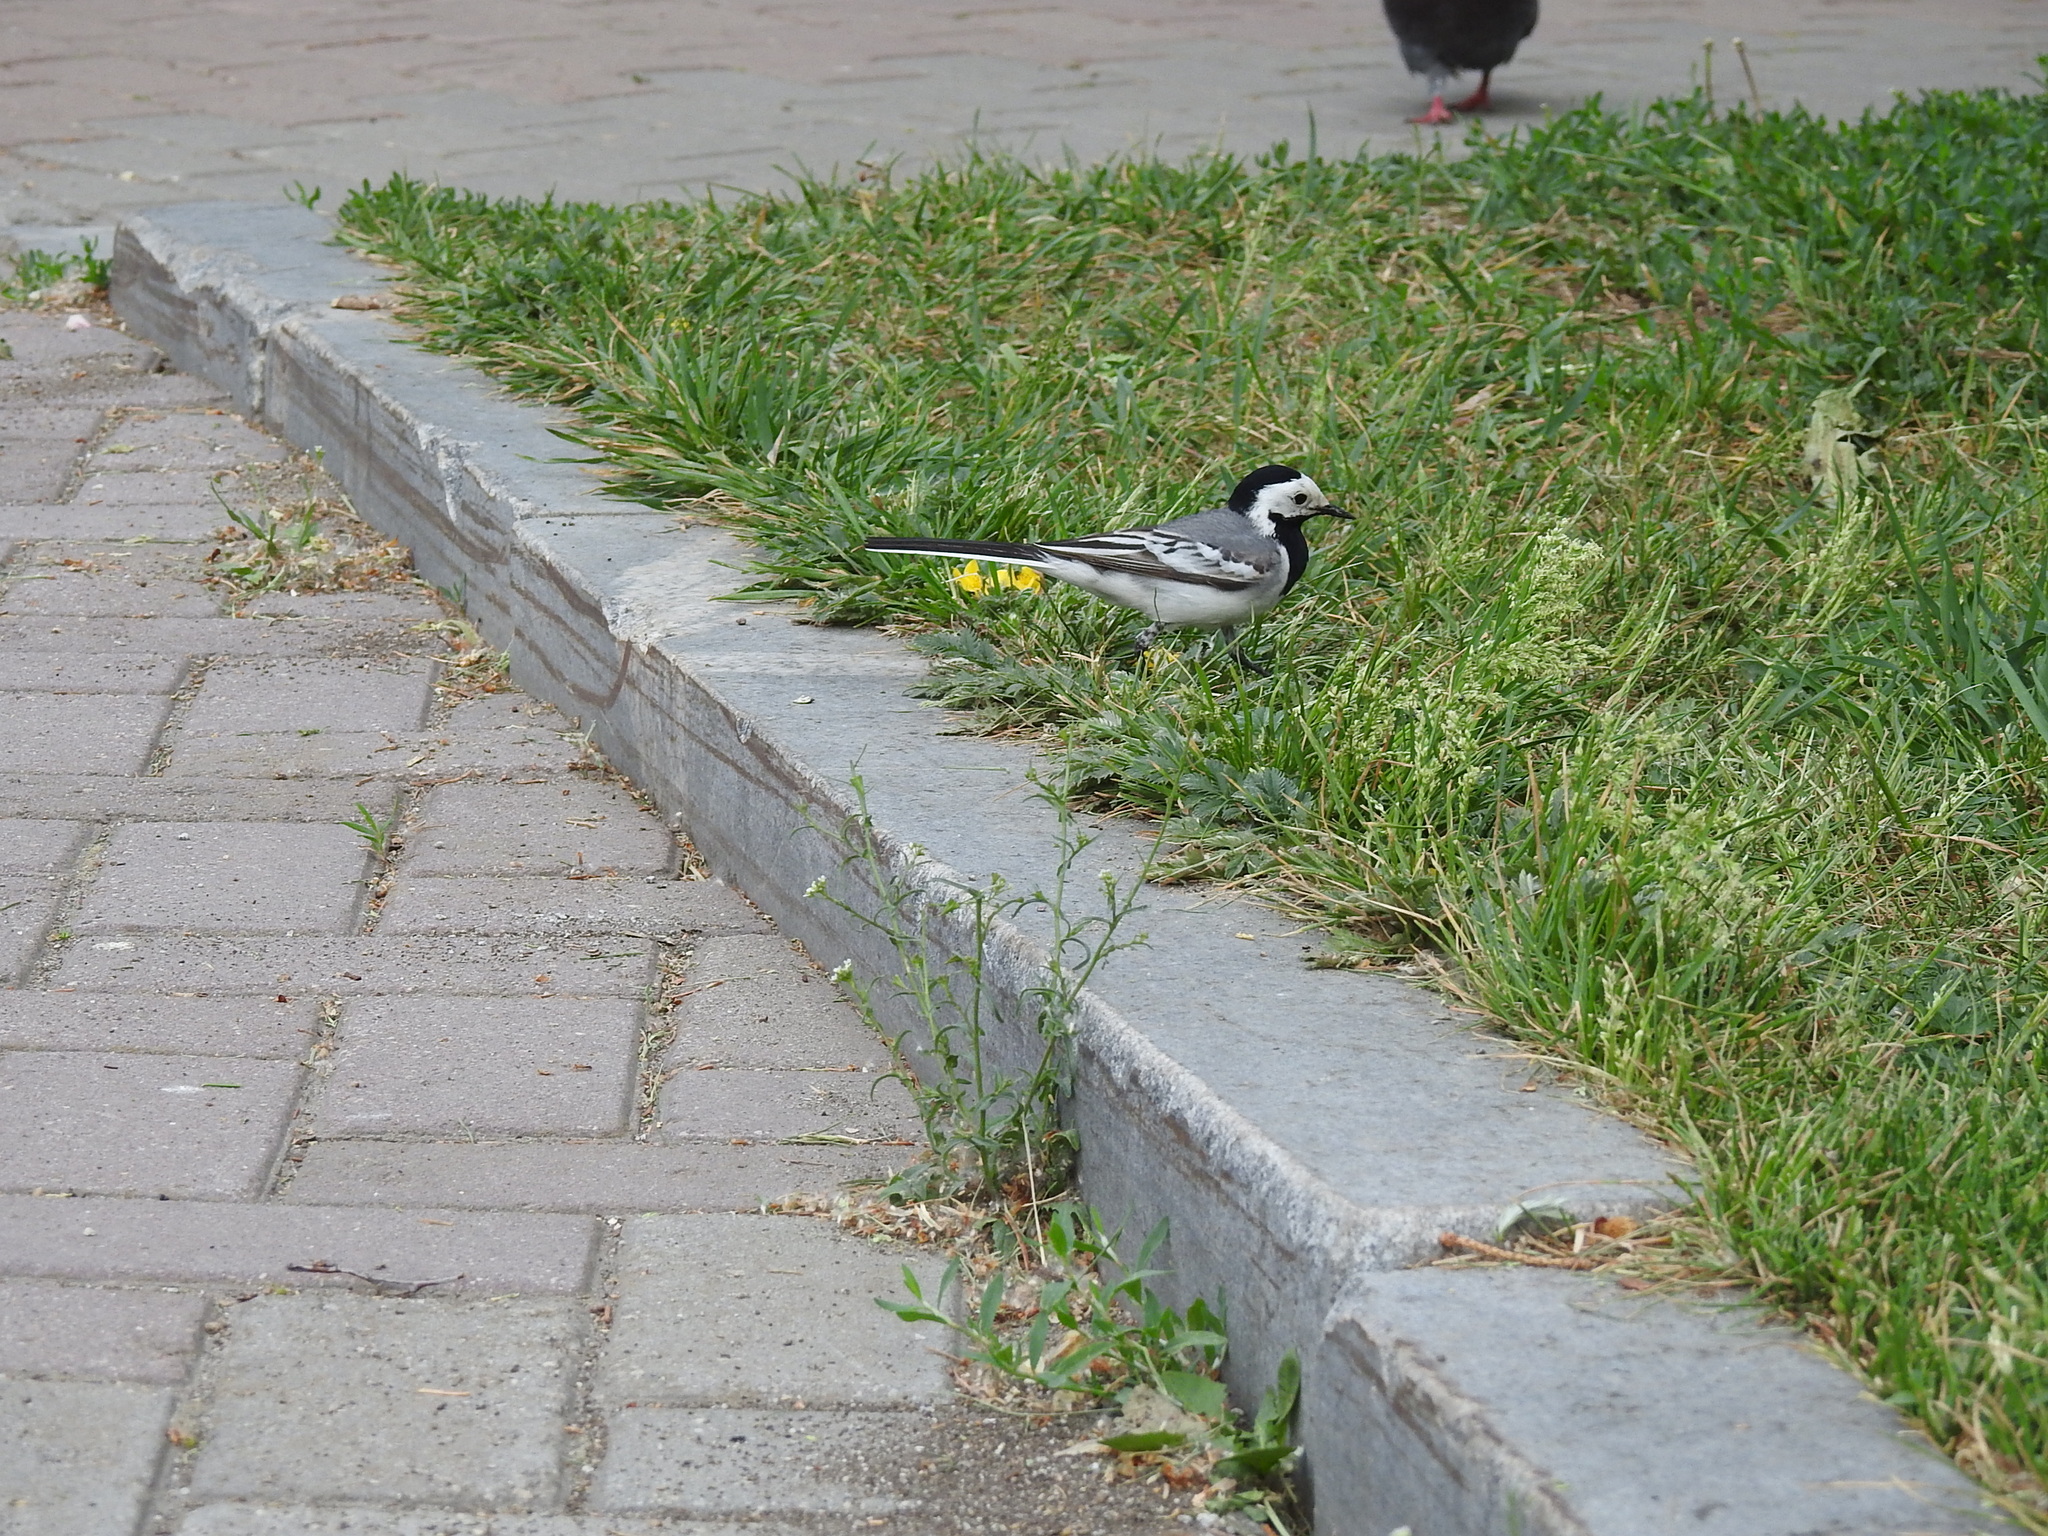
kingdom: Animalia
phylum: Chordata
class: Aves
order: Passeriformes
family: Motacillidae
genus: Motacilla
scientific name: Motacilla alba
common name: White wagtail
